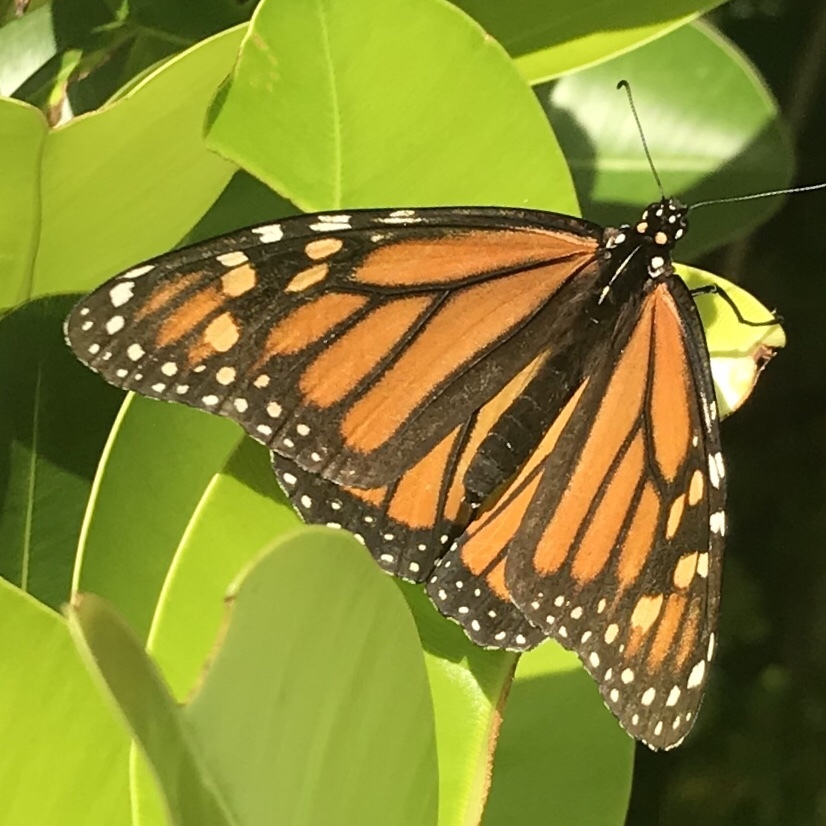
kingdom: Animalia
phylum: Arthropoda
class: Insecta
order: Lepidoptera
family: Nymphalidae
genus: Danaus
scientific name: Danaus plexippus
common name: Monarch
